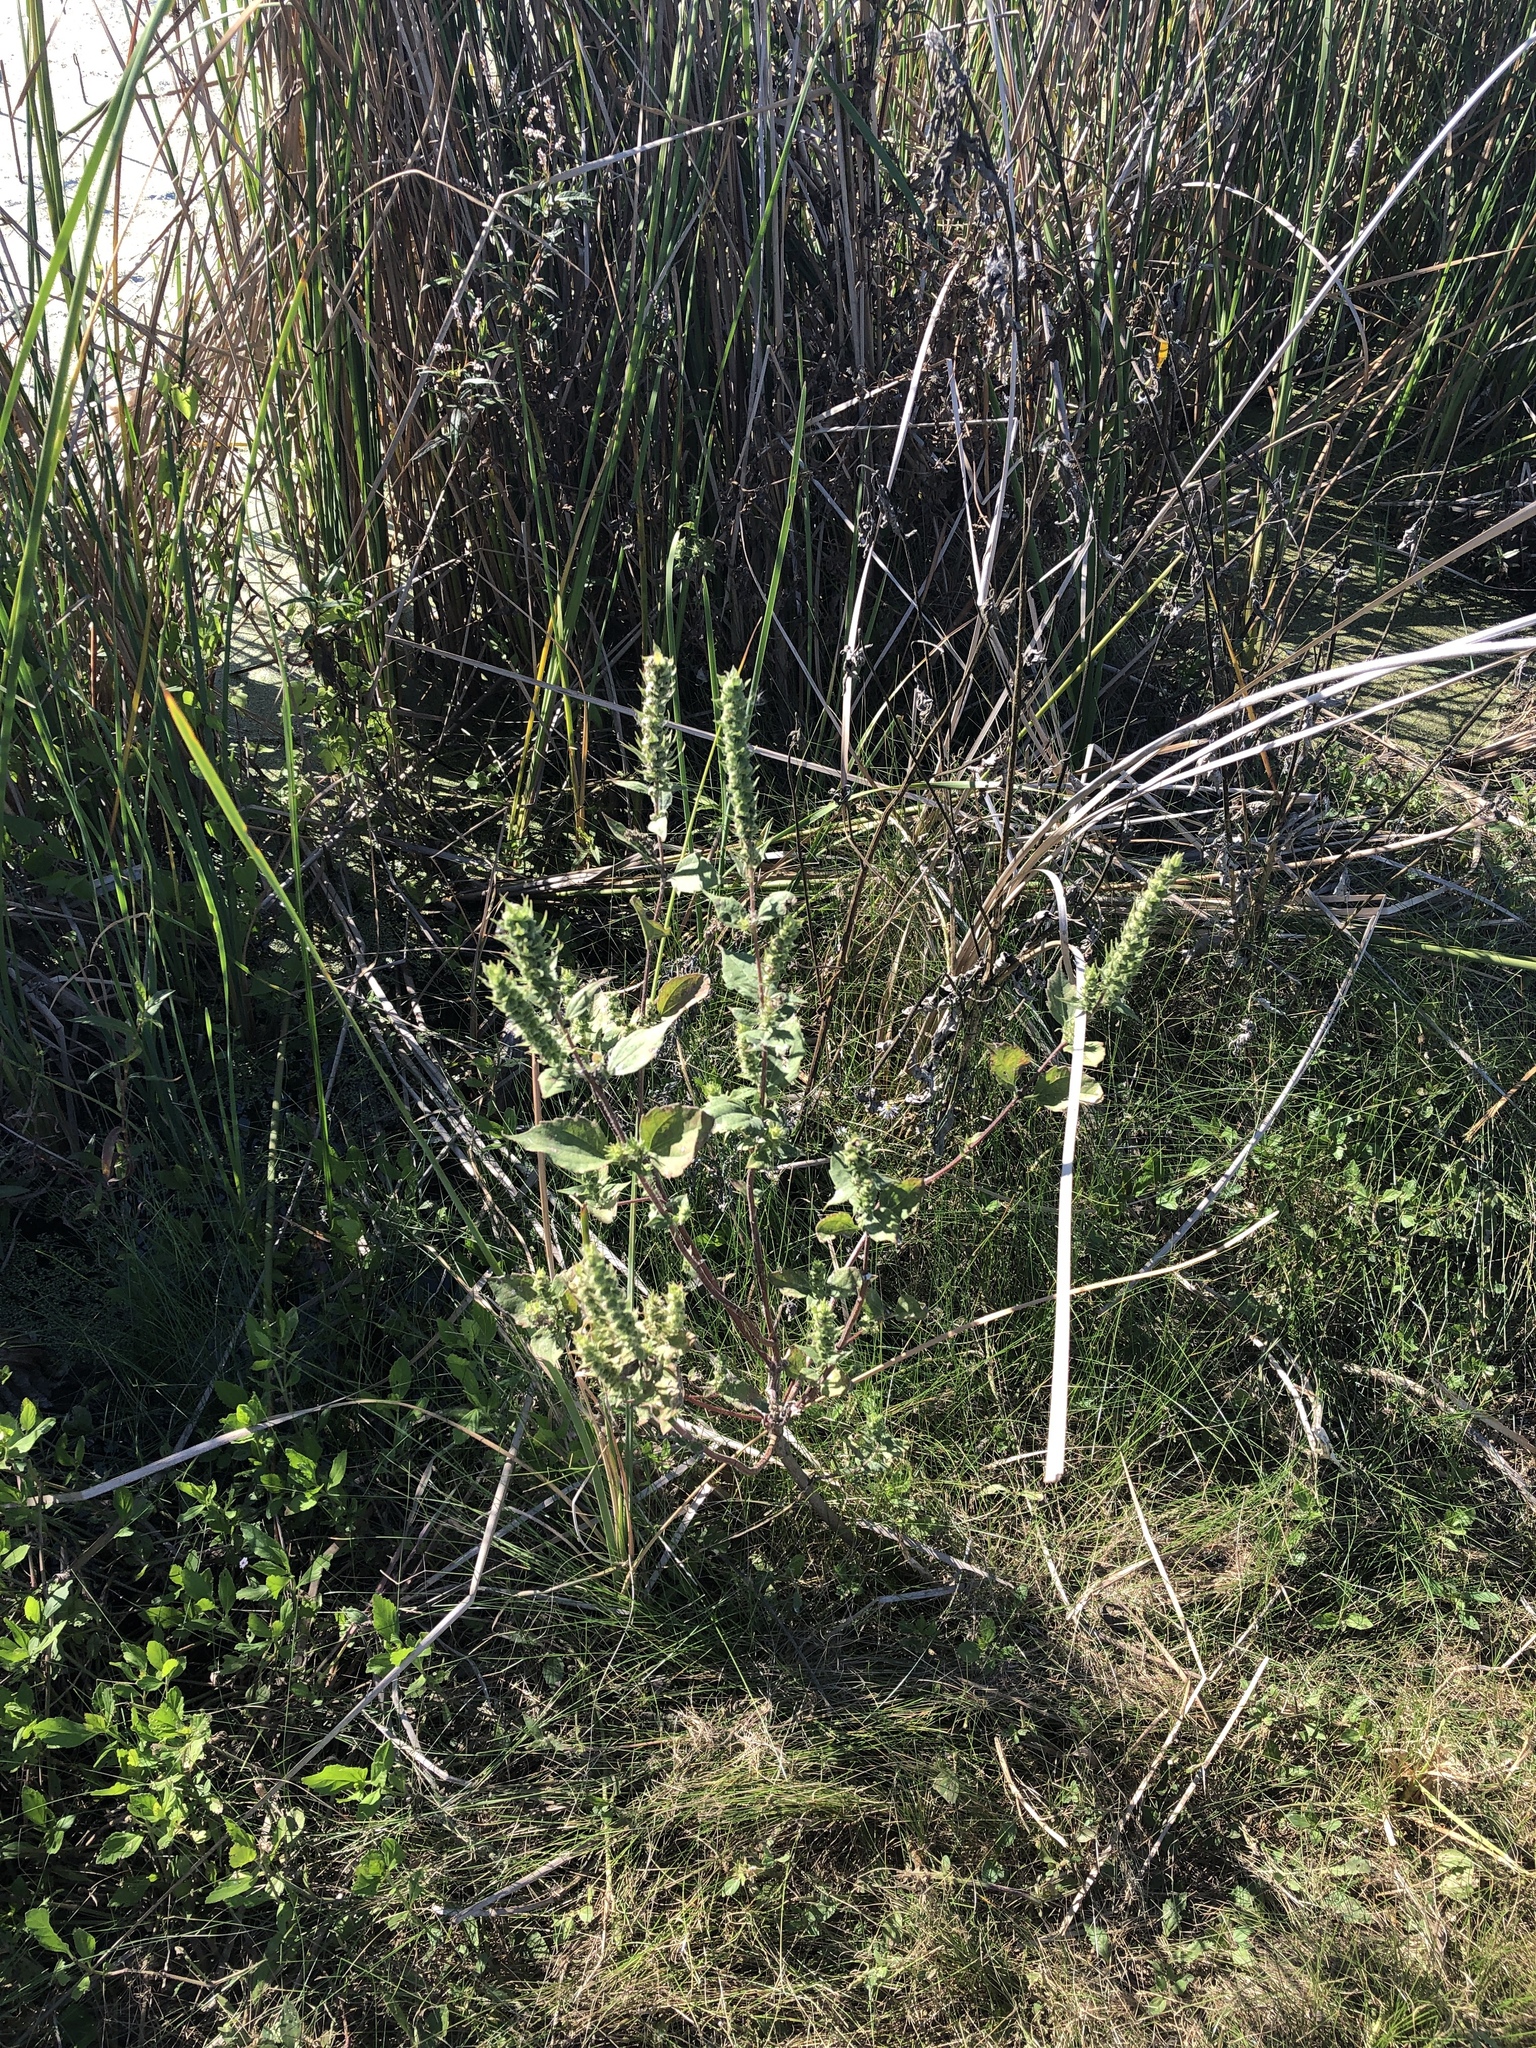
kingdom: Plantae
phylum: Tracheophyta
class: Magnoliopsida
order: Asterales
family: Asteraceae
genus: Iva
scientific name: Iva annua
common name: Marsh-elder
